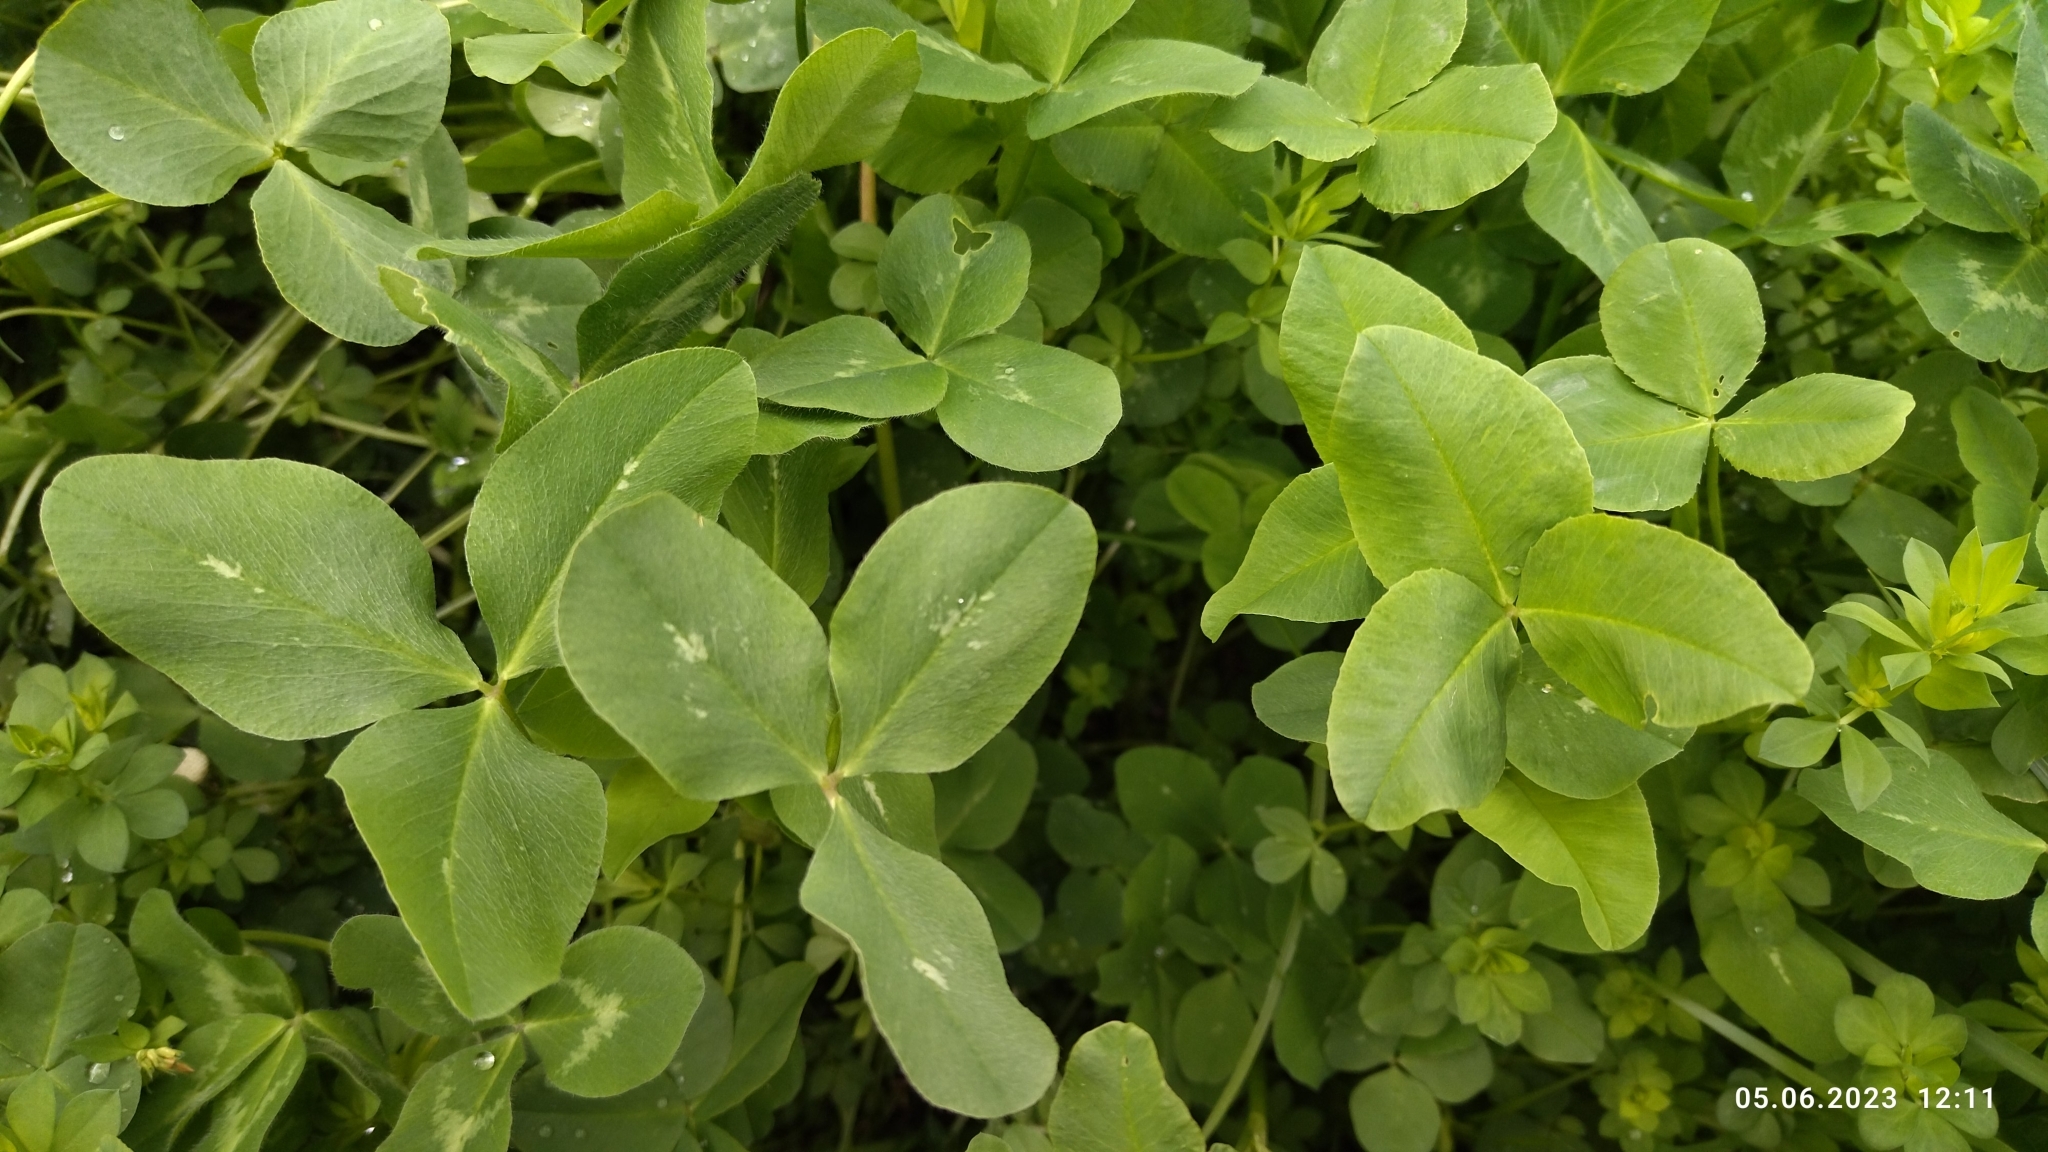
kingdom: Plantae
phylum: Tracheophyta
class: Magnoliopsida
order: Fabales
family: Fabaceae
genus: Trifolium
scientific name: Trifolium pratense
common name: Red clover
